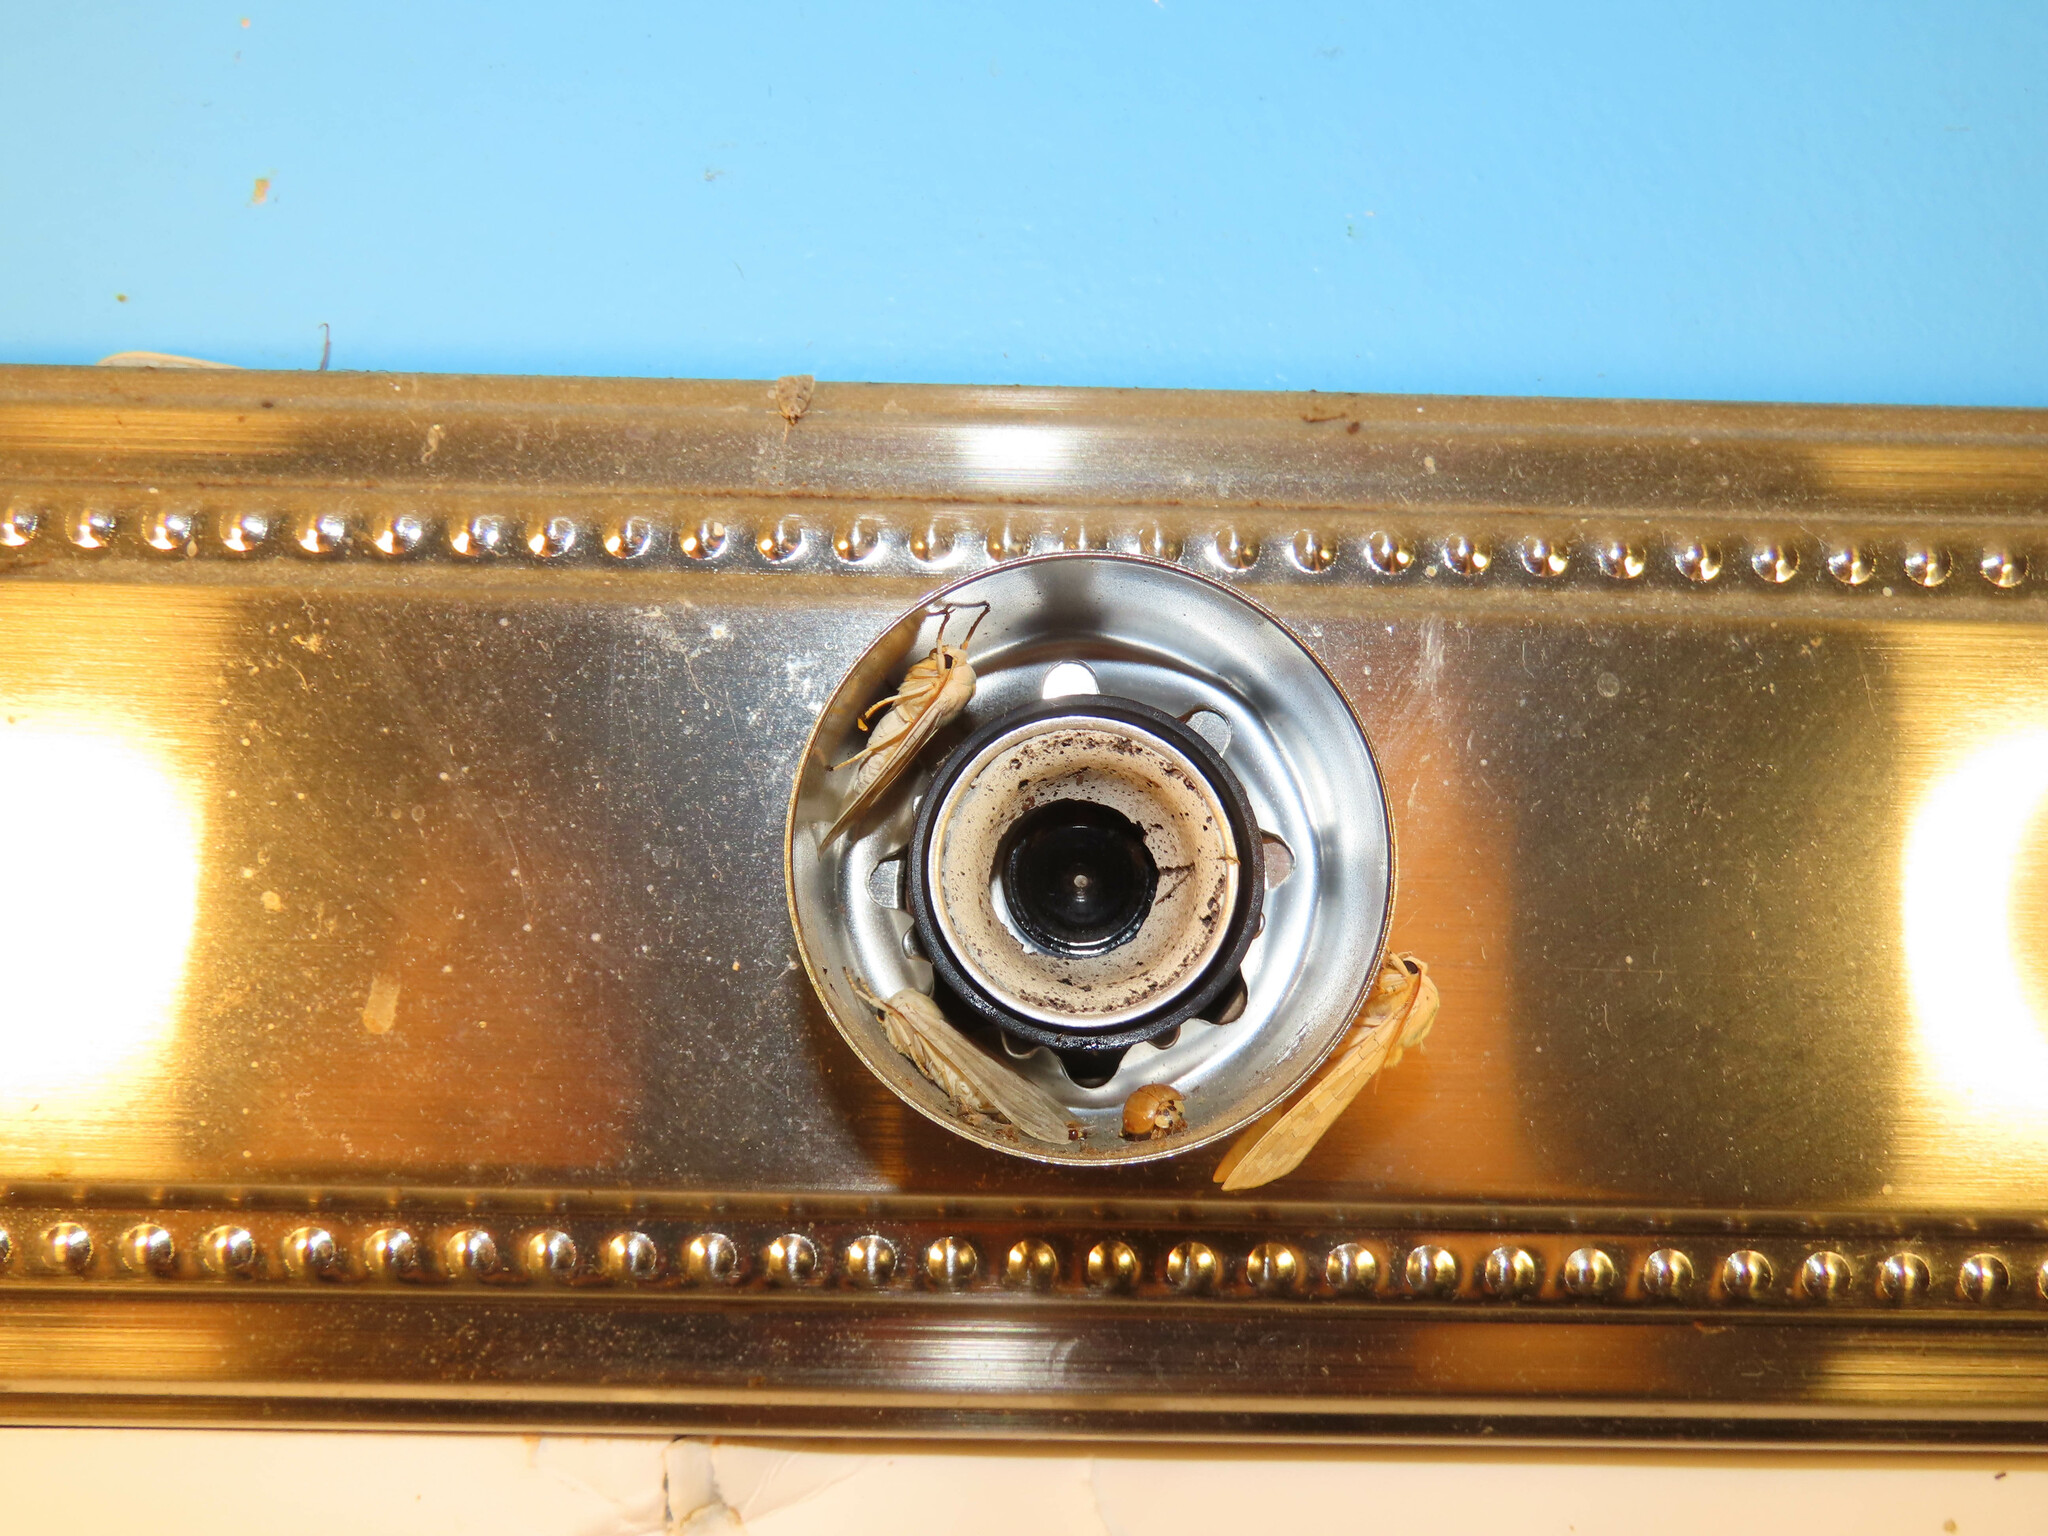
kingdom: Animalia
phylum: Arthropoda
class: Insecta
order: Lepidoptera
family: Erebidae
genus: Halysidota
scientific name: Halysidota
